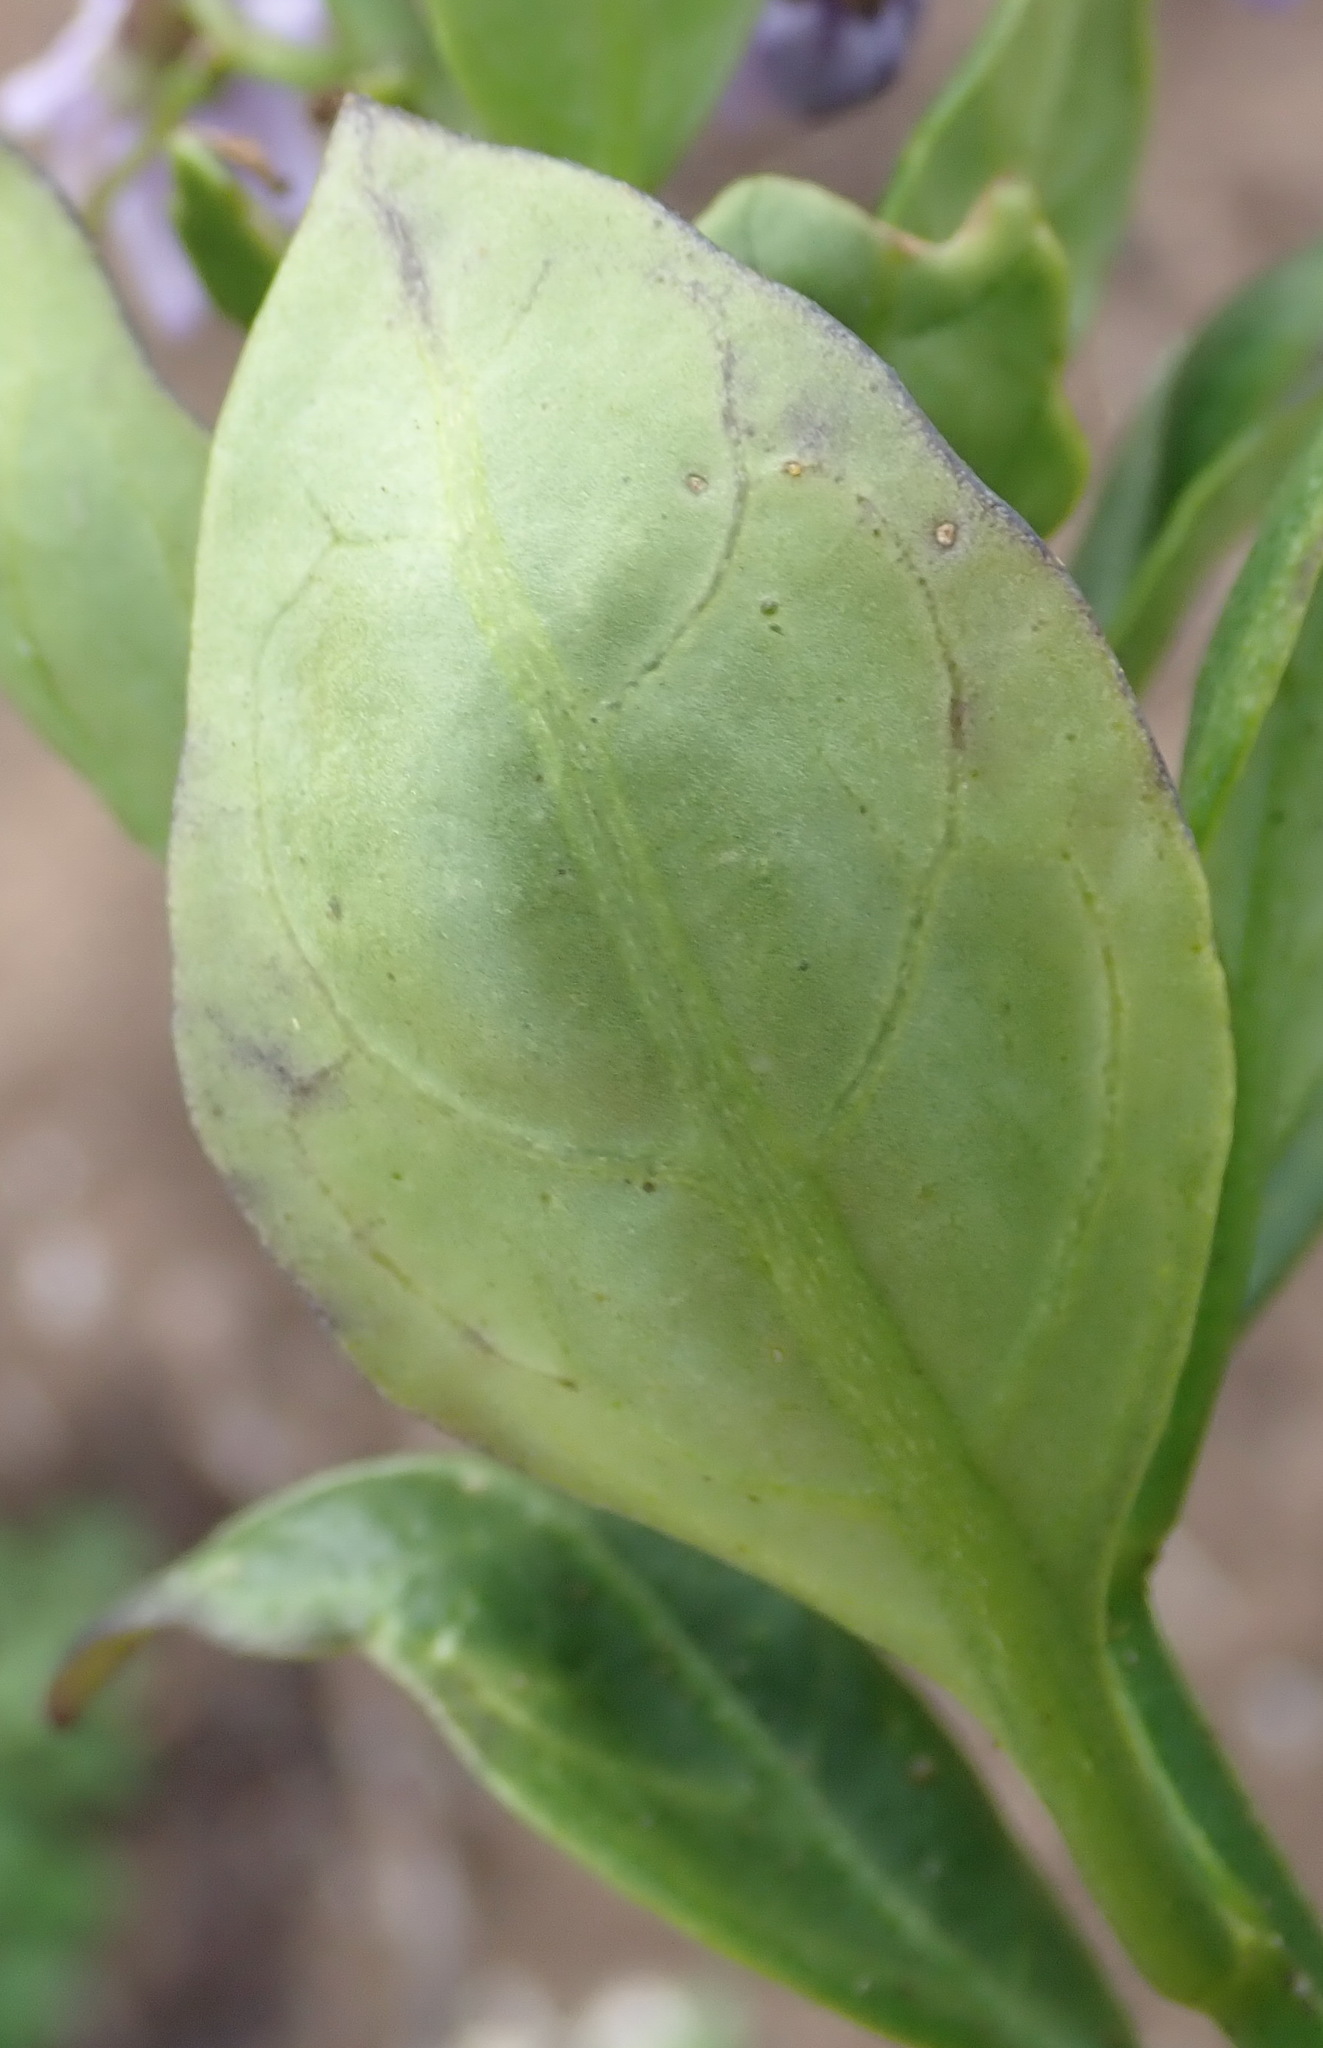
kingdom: Plantae
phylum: Tracheophyta
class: Magnoliopsida
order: Solanales
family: Solanaceae
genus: Solanum
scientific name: Solanum africanum
